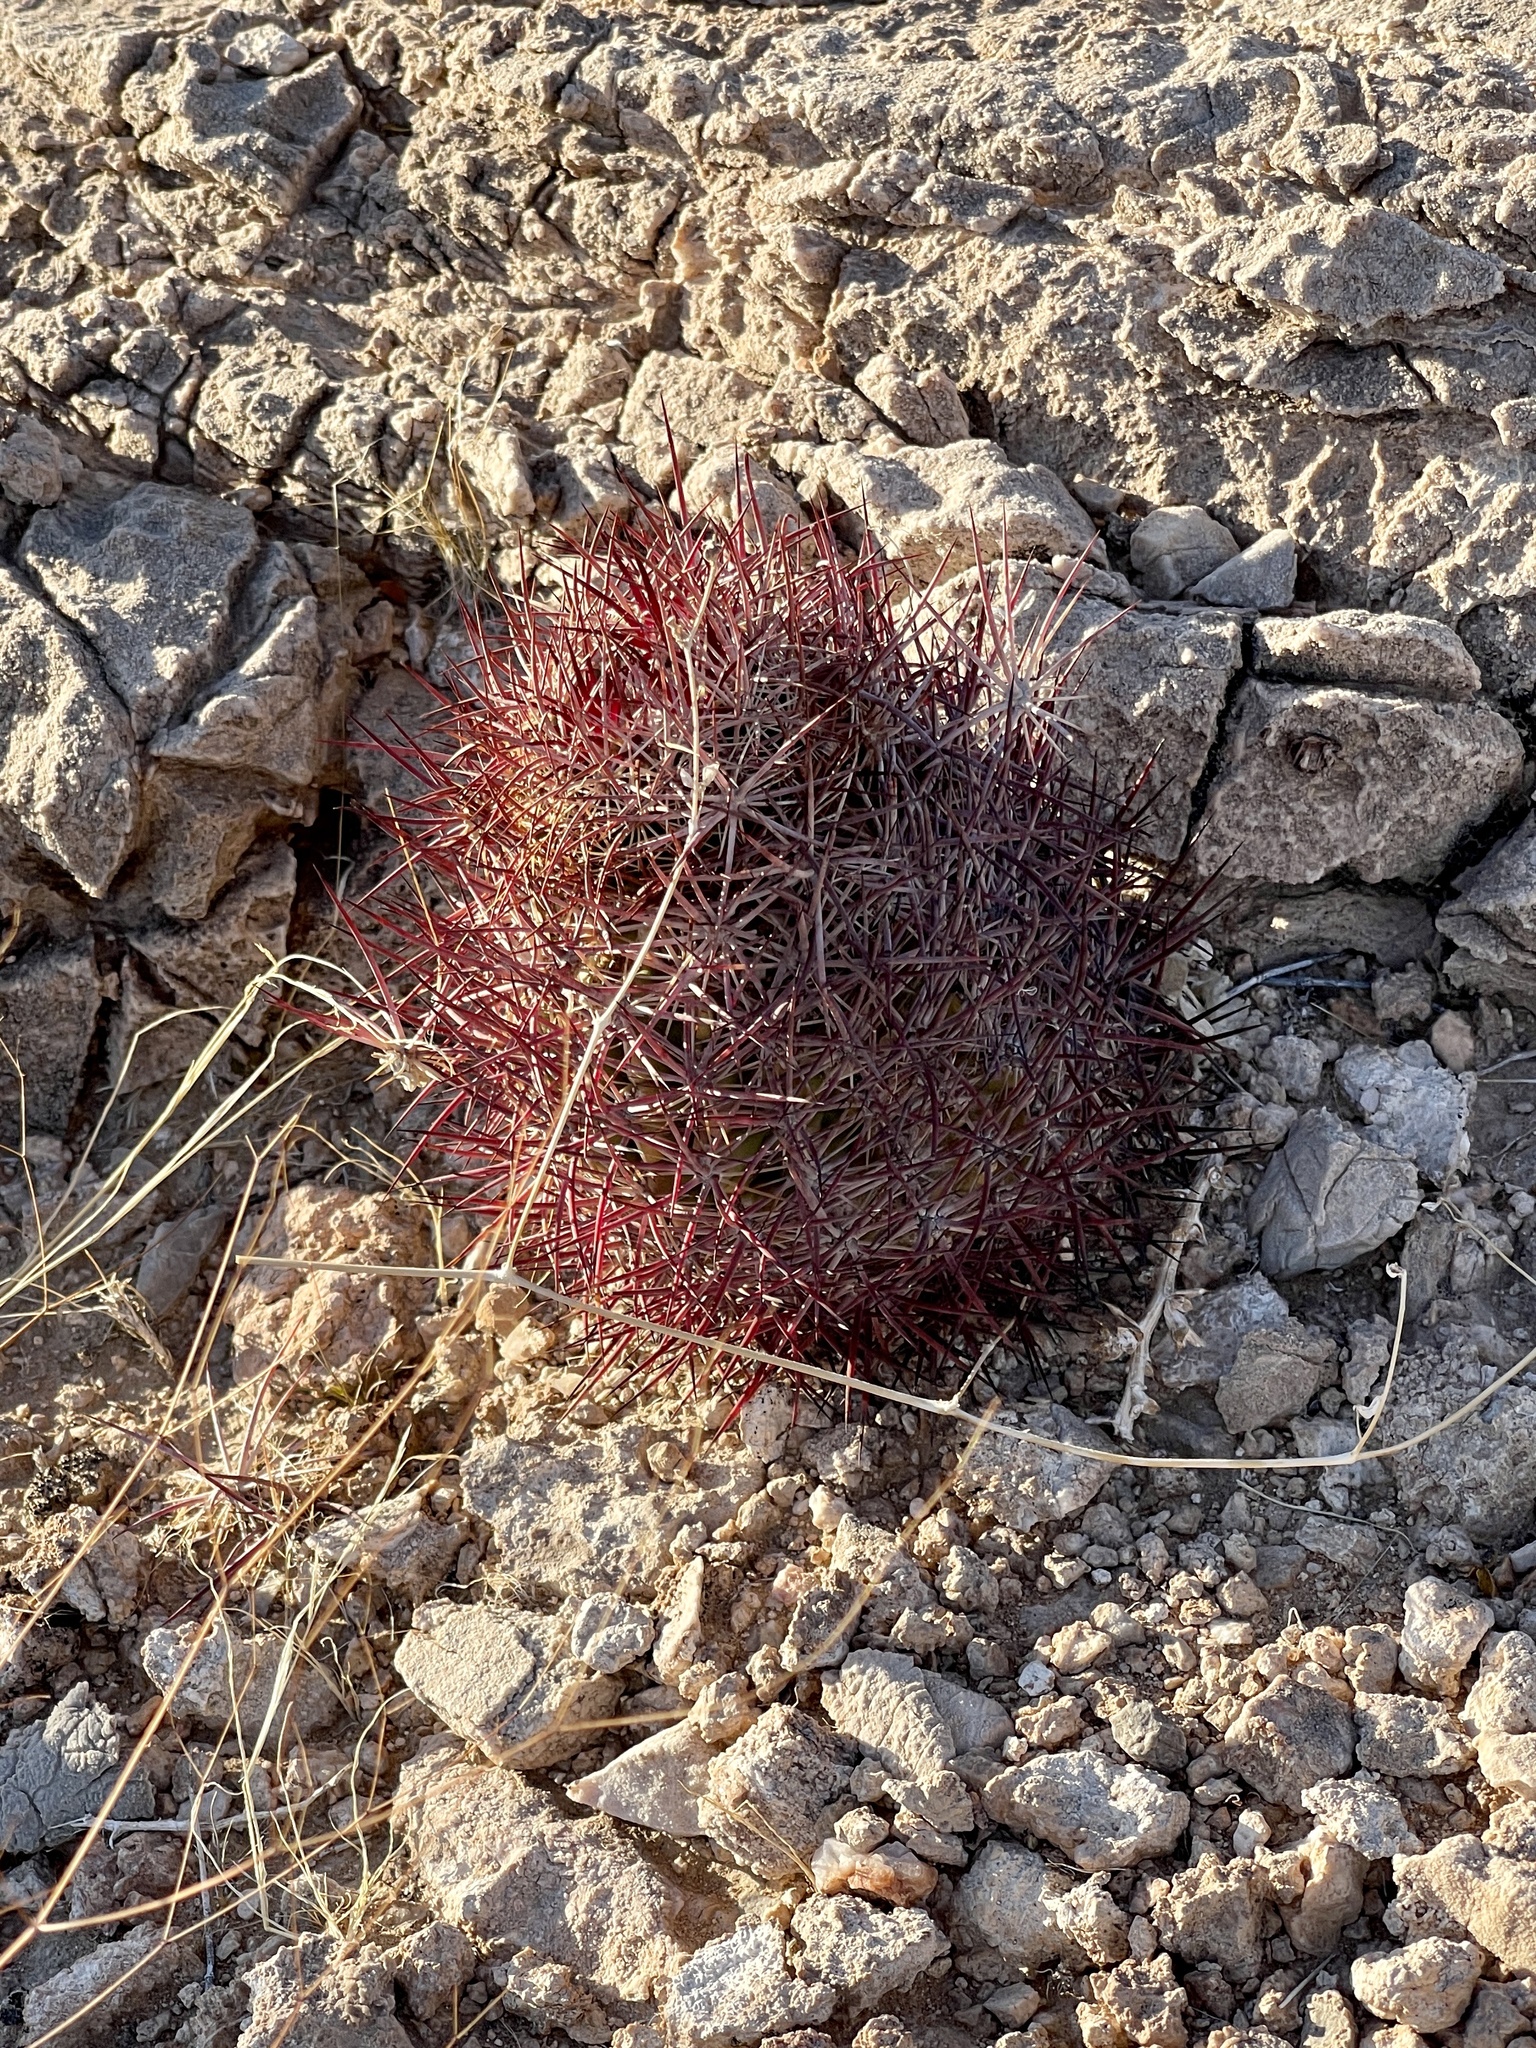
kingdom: Plantae
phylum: Tracheophyta
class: Magnoliopsida
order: Caryophyllales
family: Cactaceae
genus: Sclerocactus
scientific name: Sclerocactus johnsonii
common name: Eight-spine fishhook cactus
